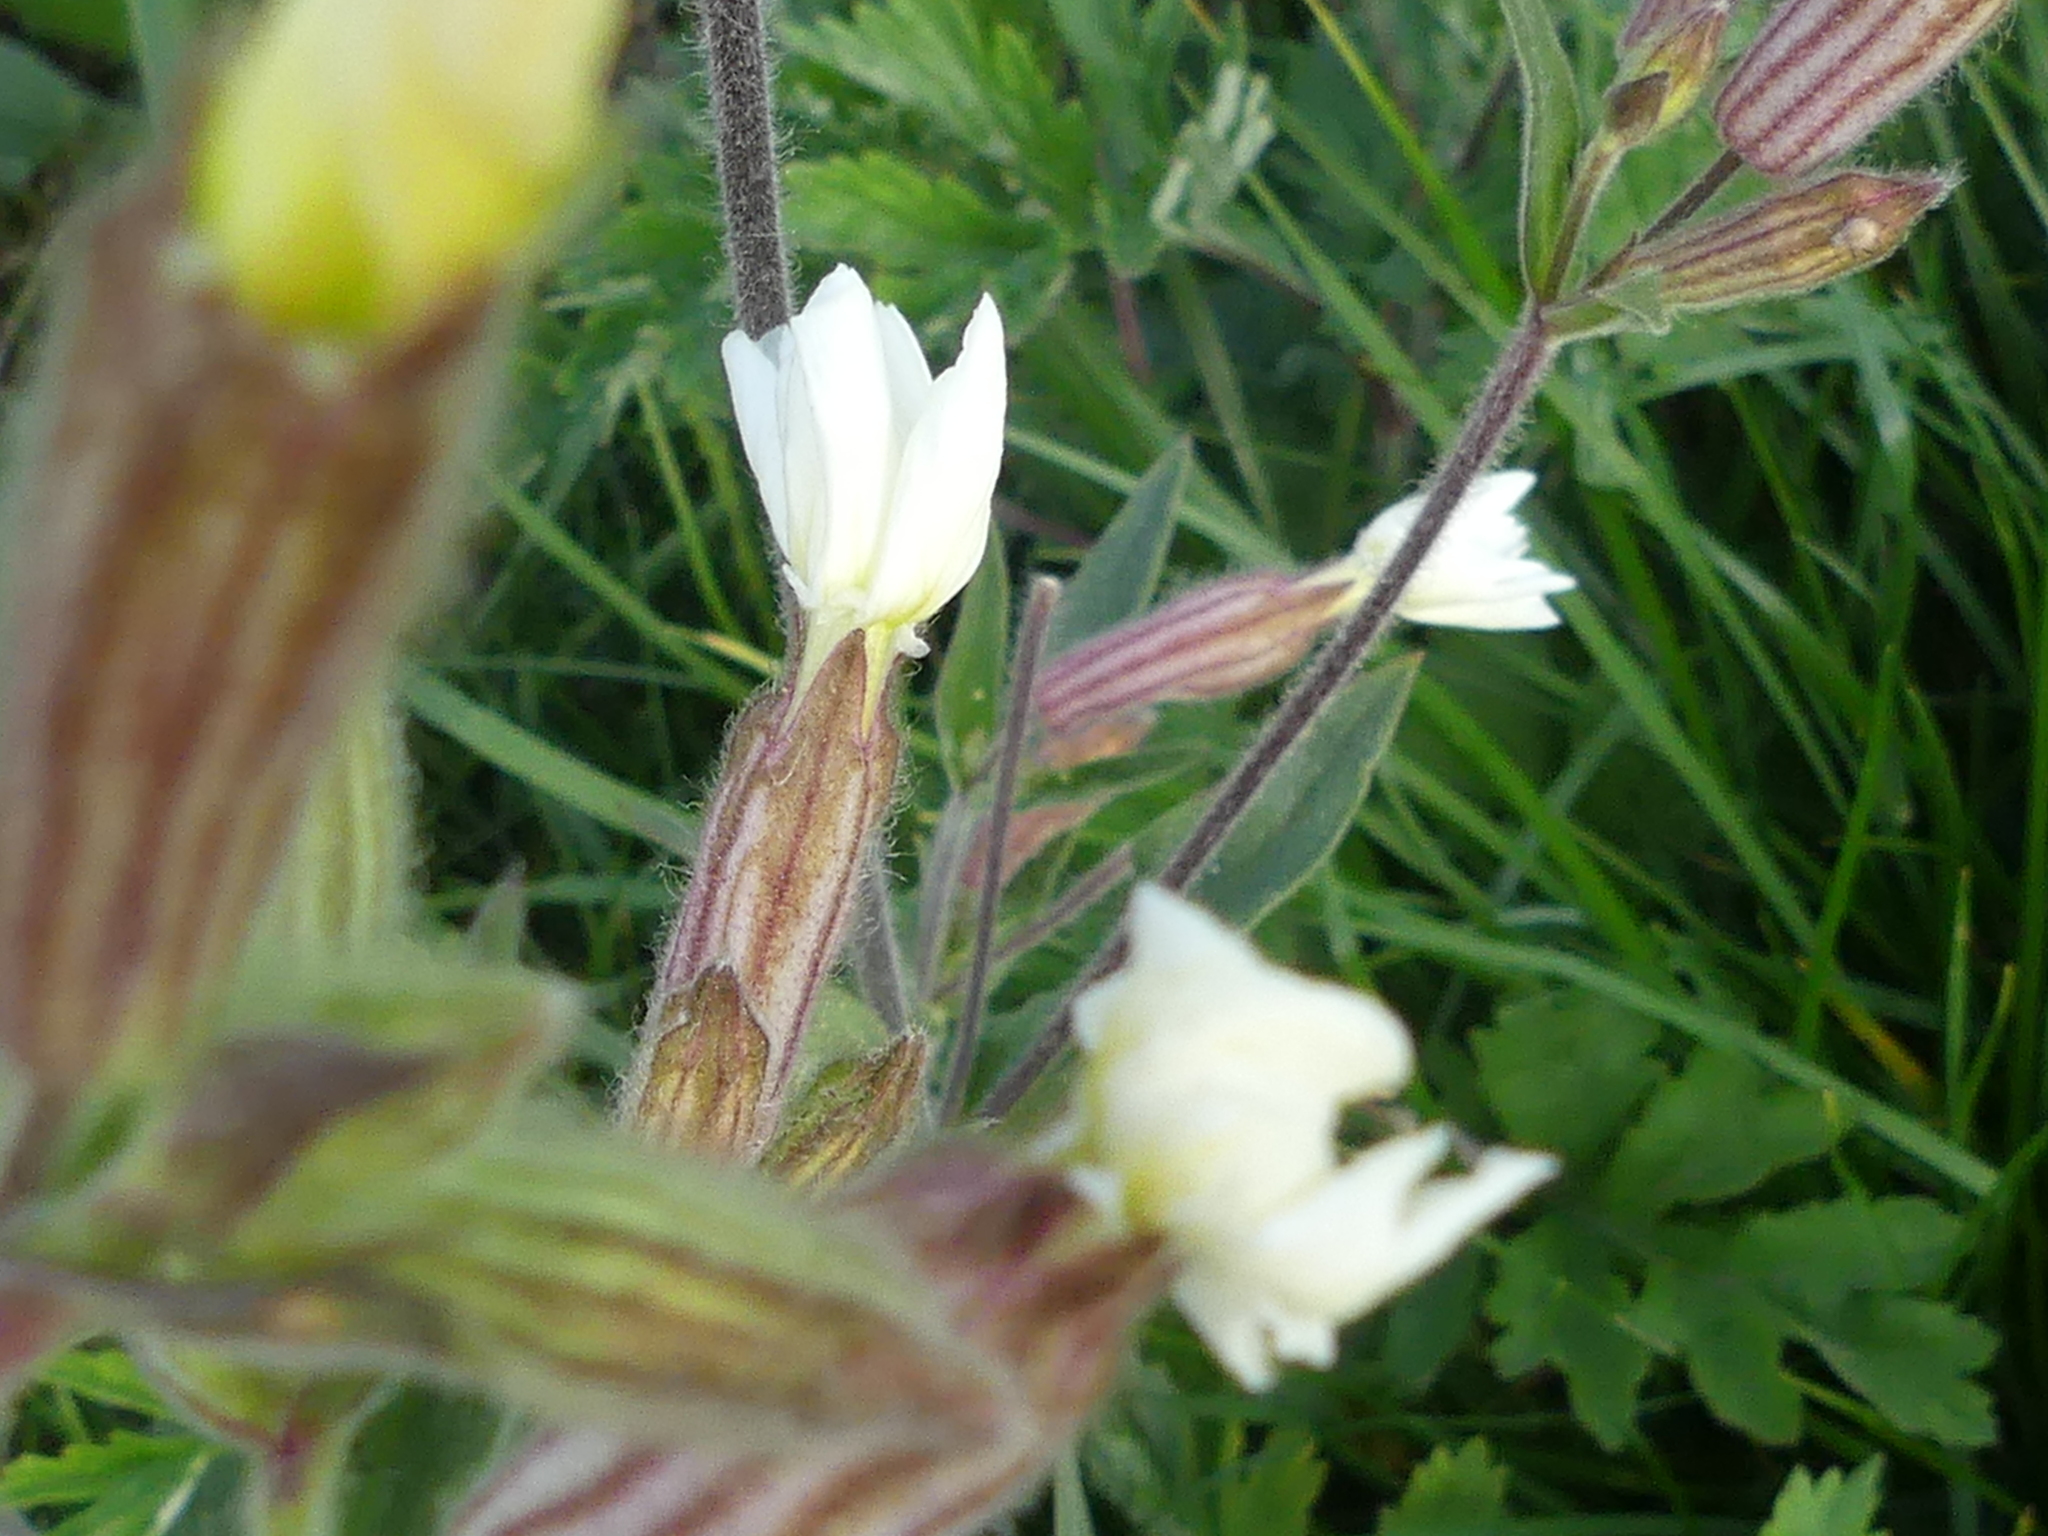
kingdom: Plantae
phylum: Tracheophyta
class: Magnoliopsida
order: Caryophyllales
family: Caryophyllaceae
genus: Silene
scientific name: Silene latifolia
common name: White campion
